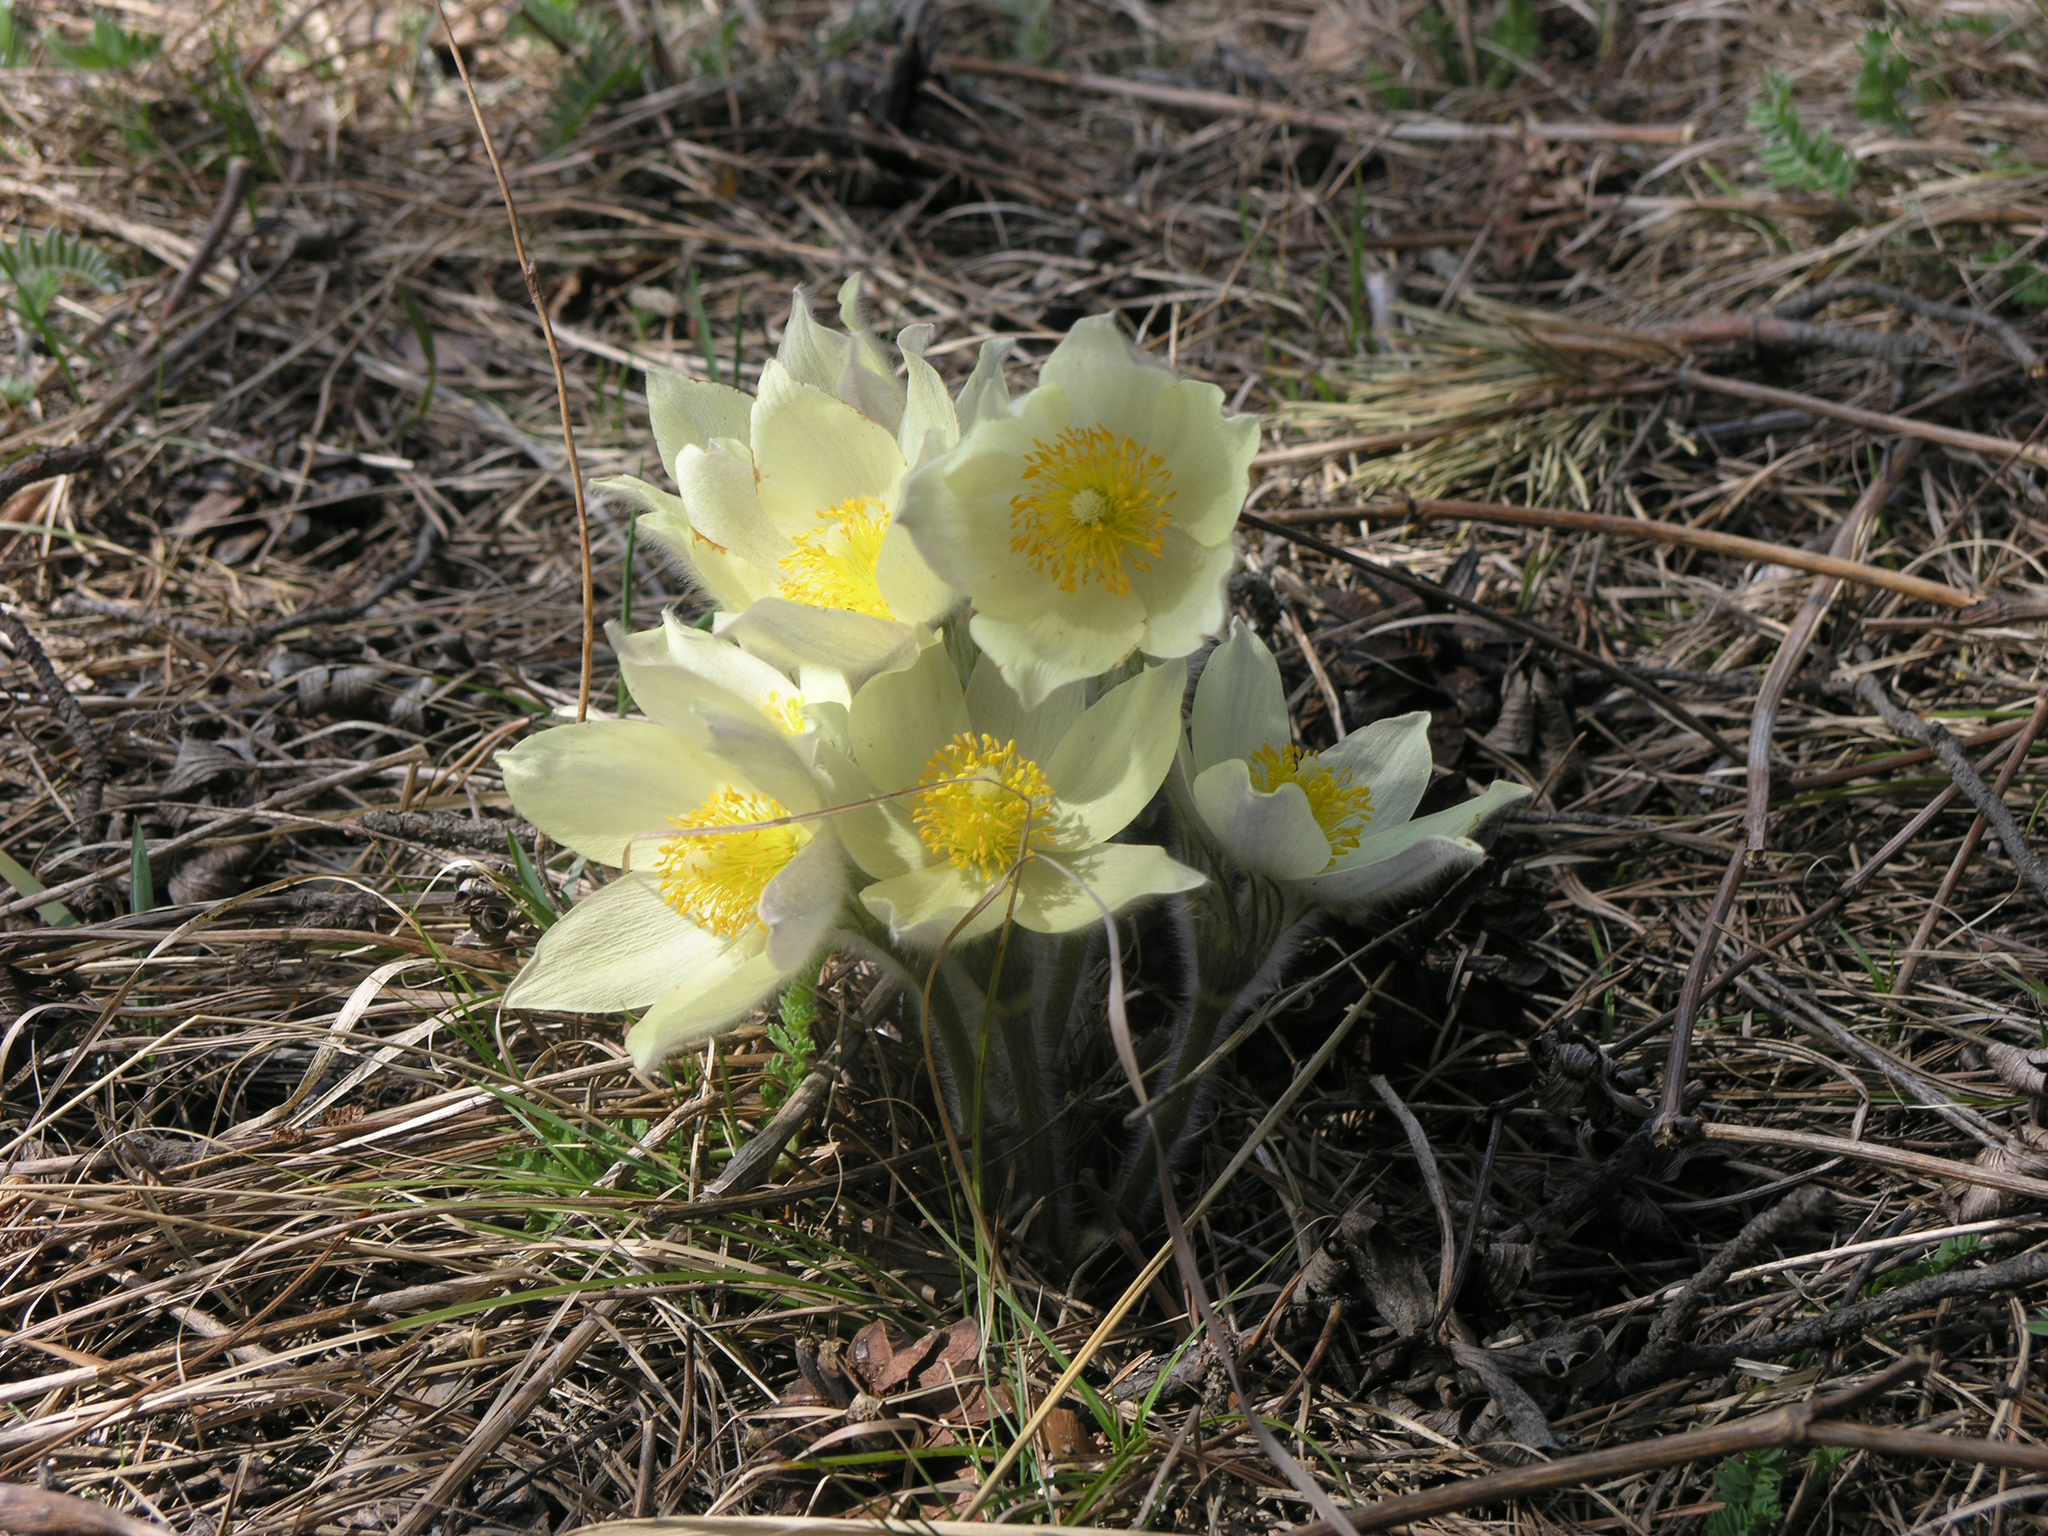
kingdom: Plantae
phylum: Tracheophyta
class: Magnoliopsida
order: Ranunculales
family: Ranunculaceae
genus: Pulsatilla
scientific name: Pulsatilla patens
